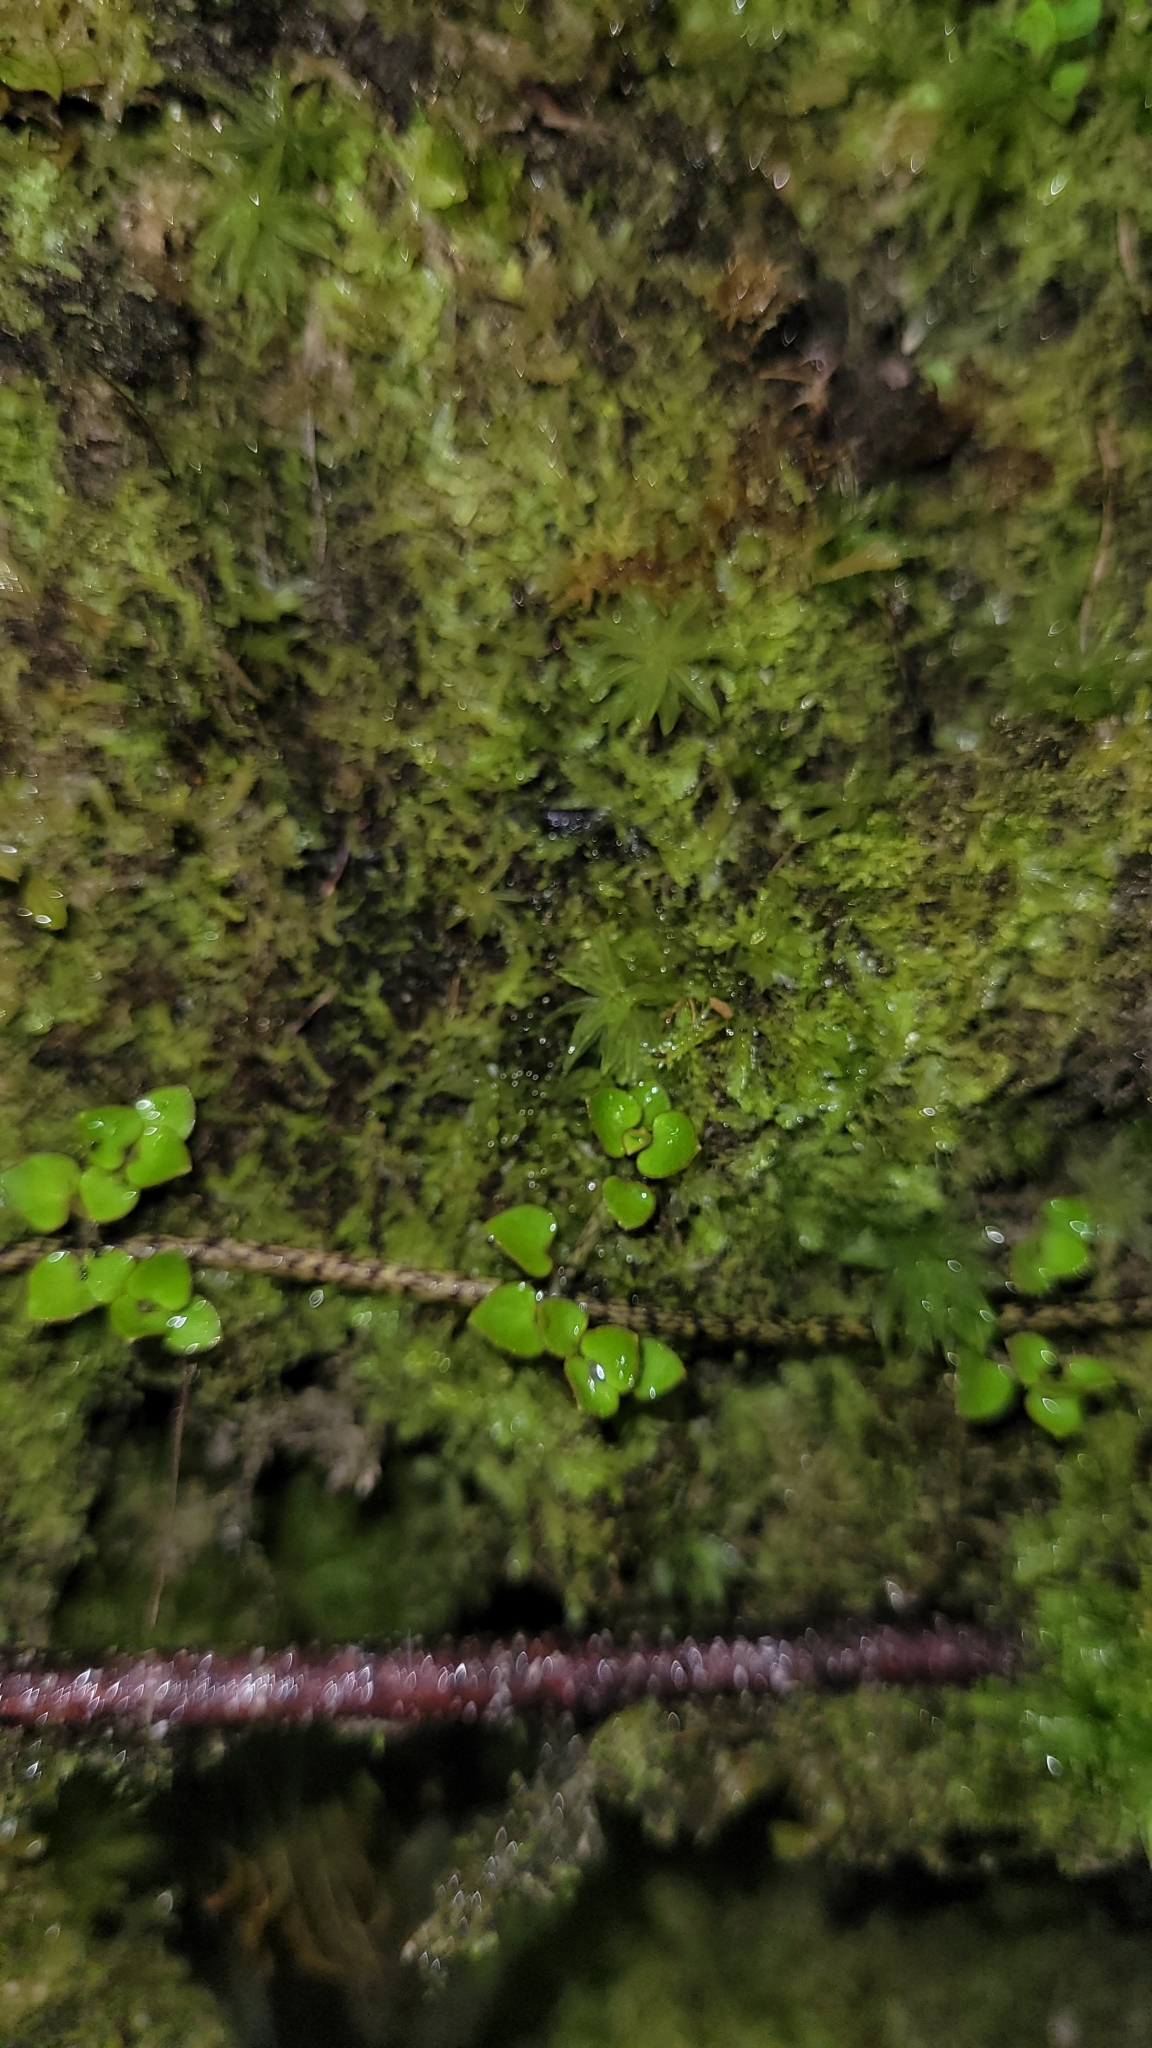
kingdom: Plantae
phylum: Tracheophyta
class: Magnoliopsida
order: Gentianales
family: Rubiaceae
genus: Nertera
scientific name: Nertera granadensis
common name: Beadplant
